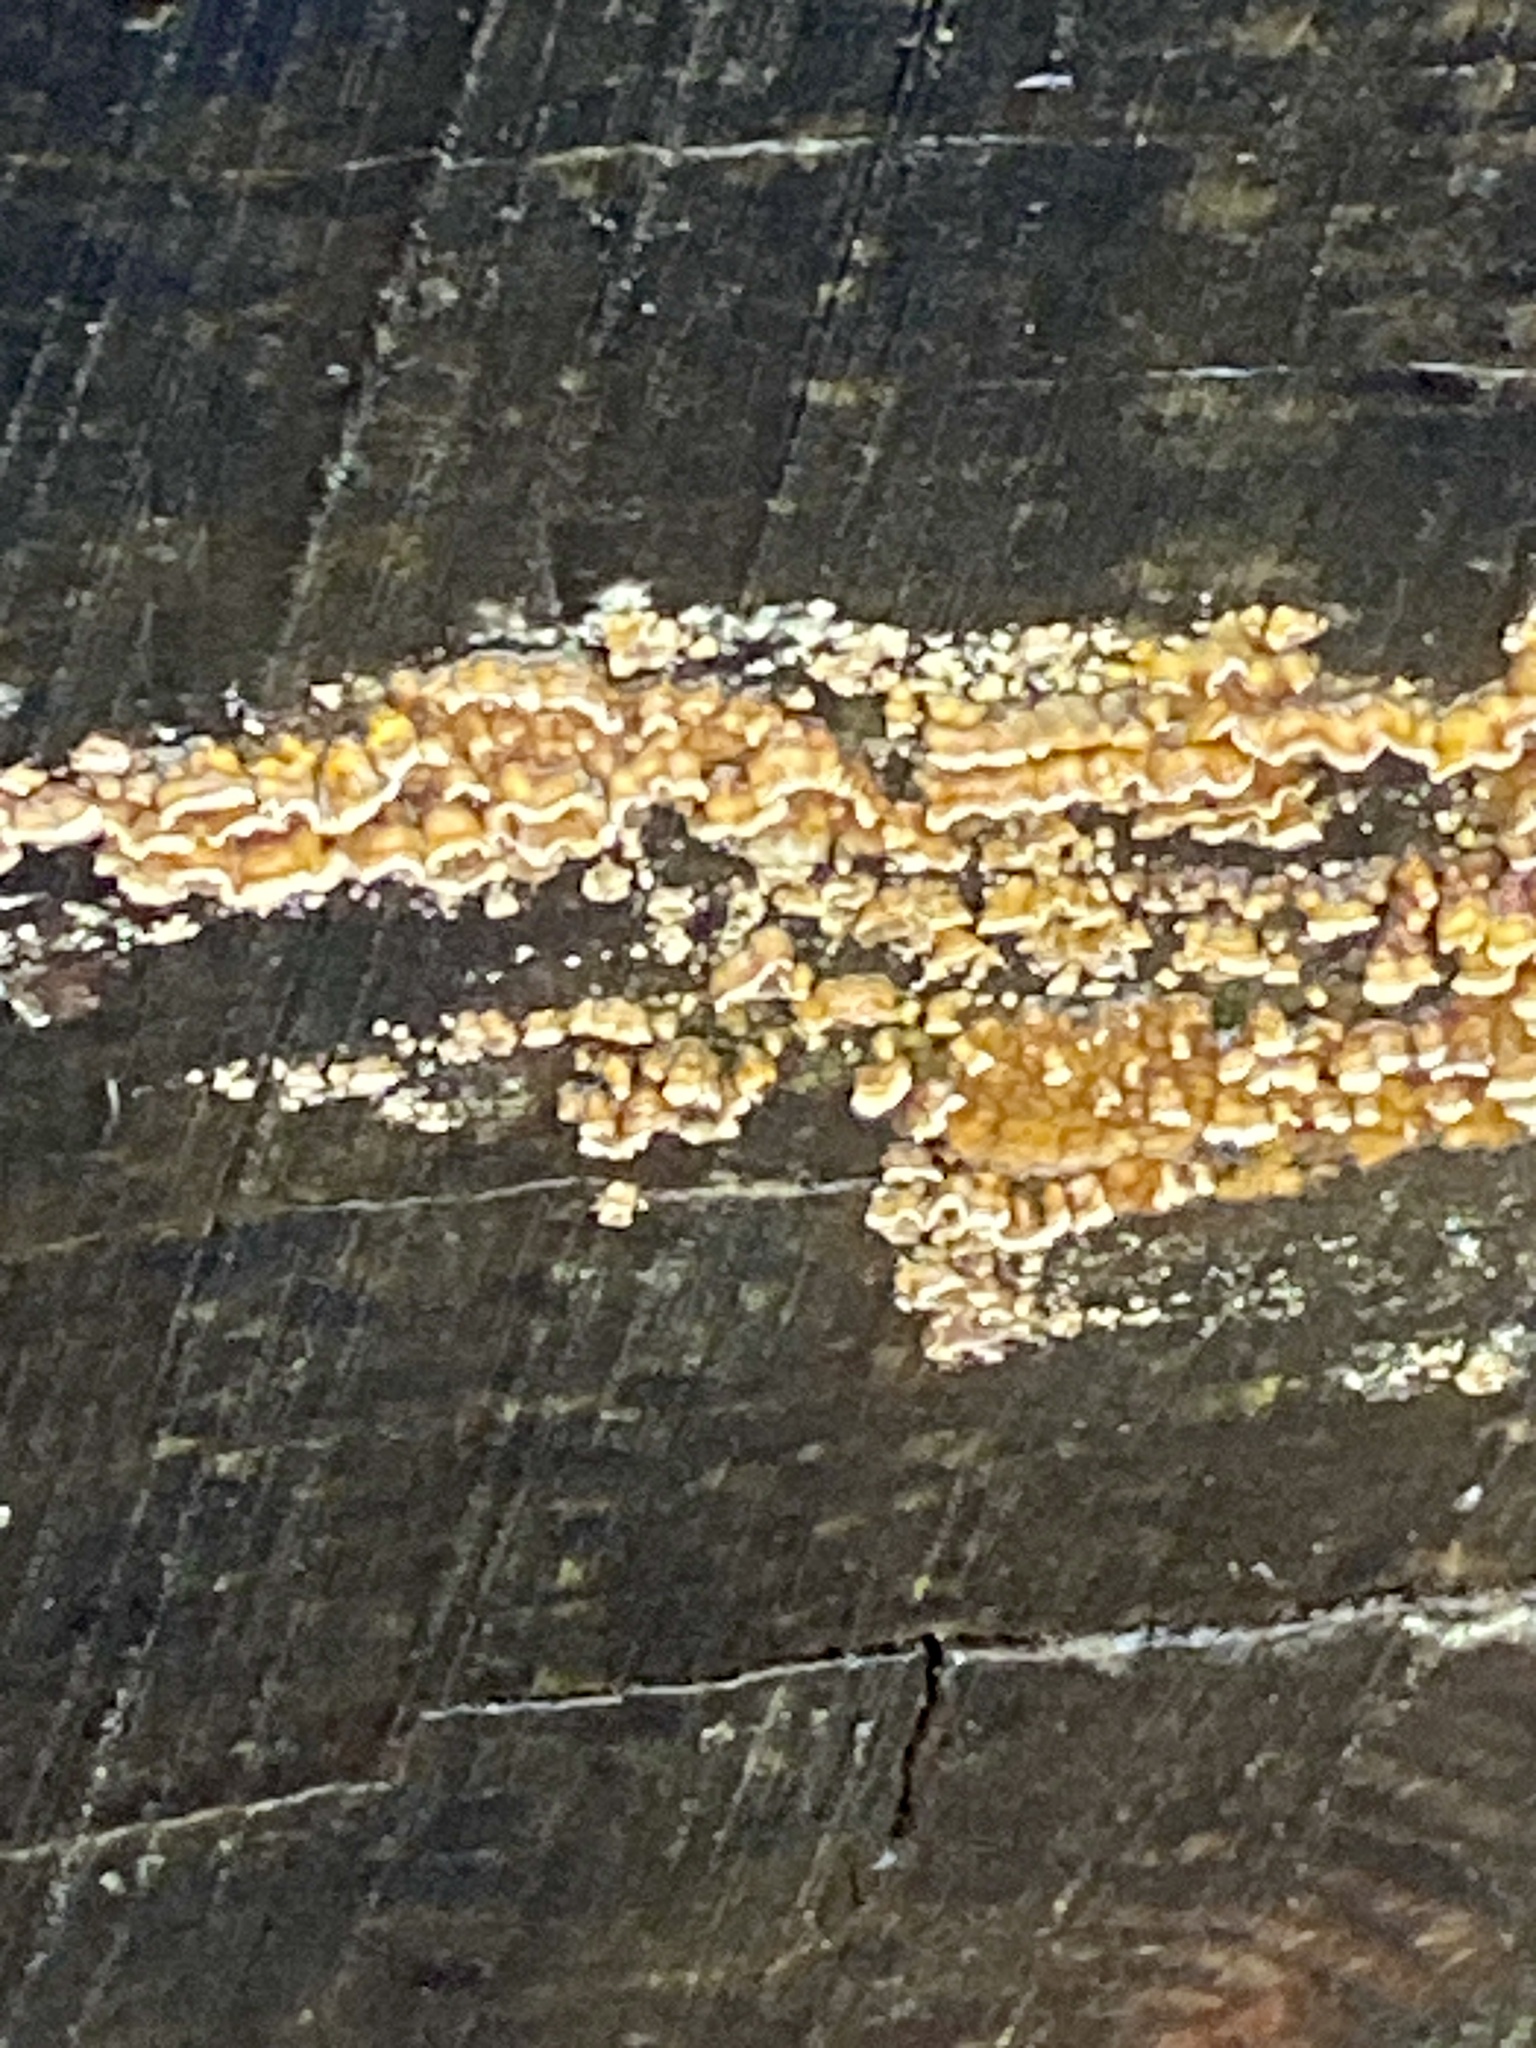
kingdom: Fungi
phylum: Basidiomycota
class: Agaricomycetes
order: Russulales
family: Stereaceae
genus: Stereum
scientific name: Stereum complicatum
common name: Crowded parchment
